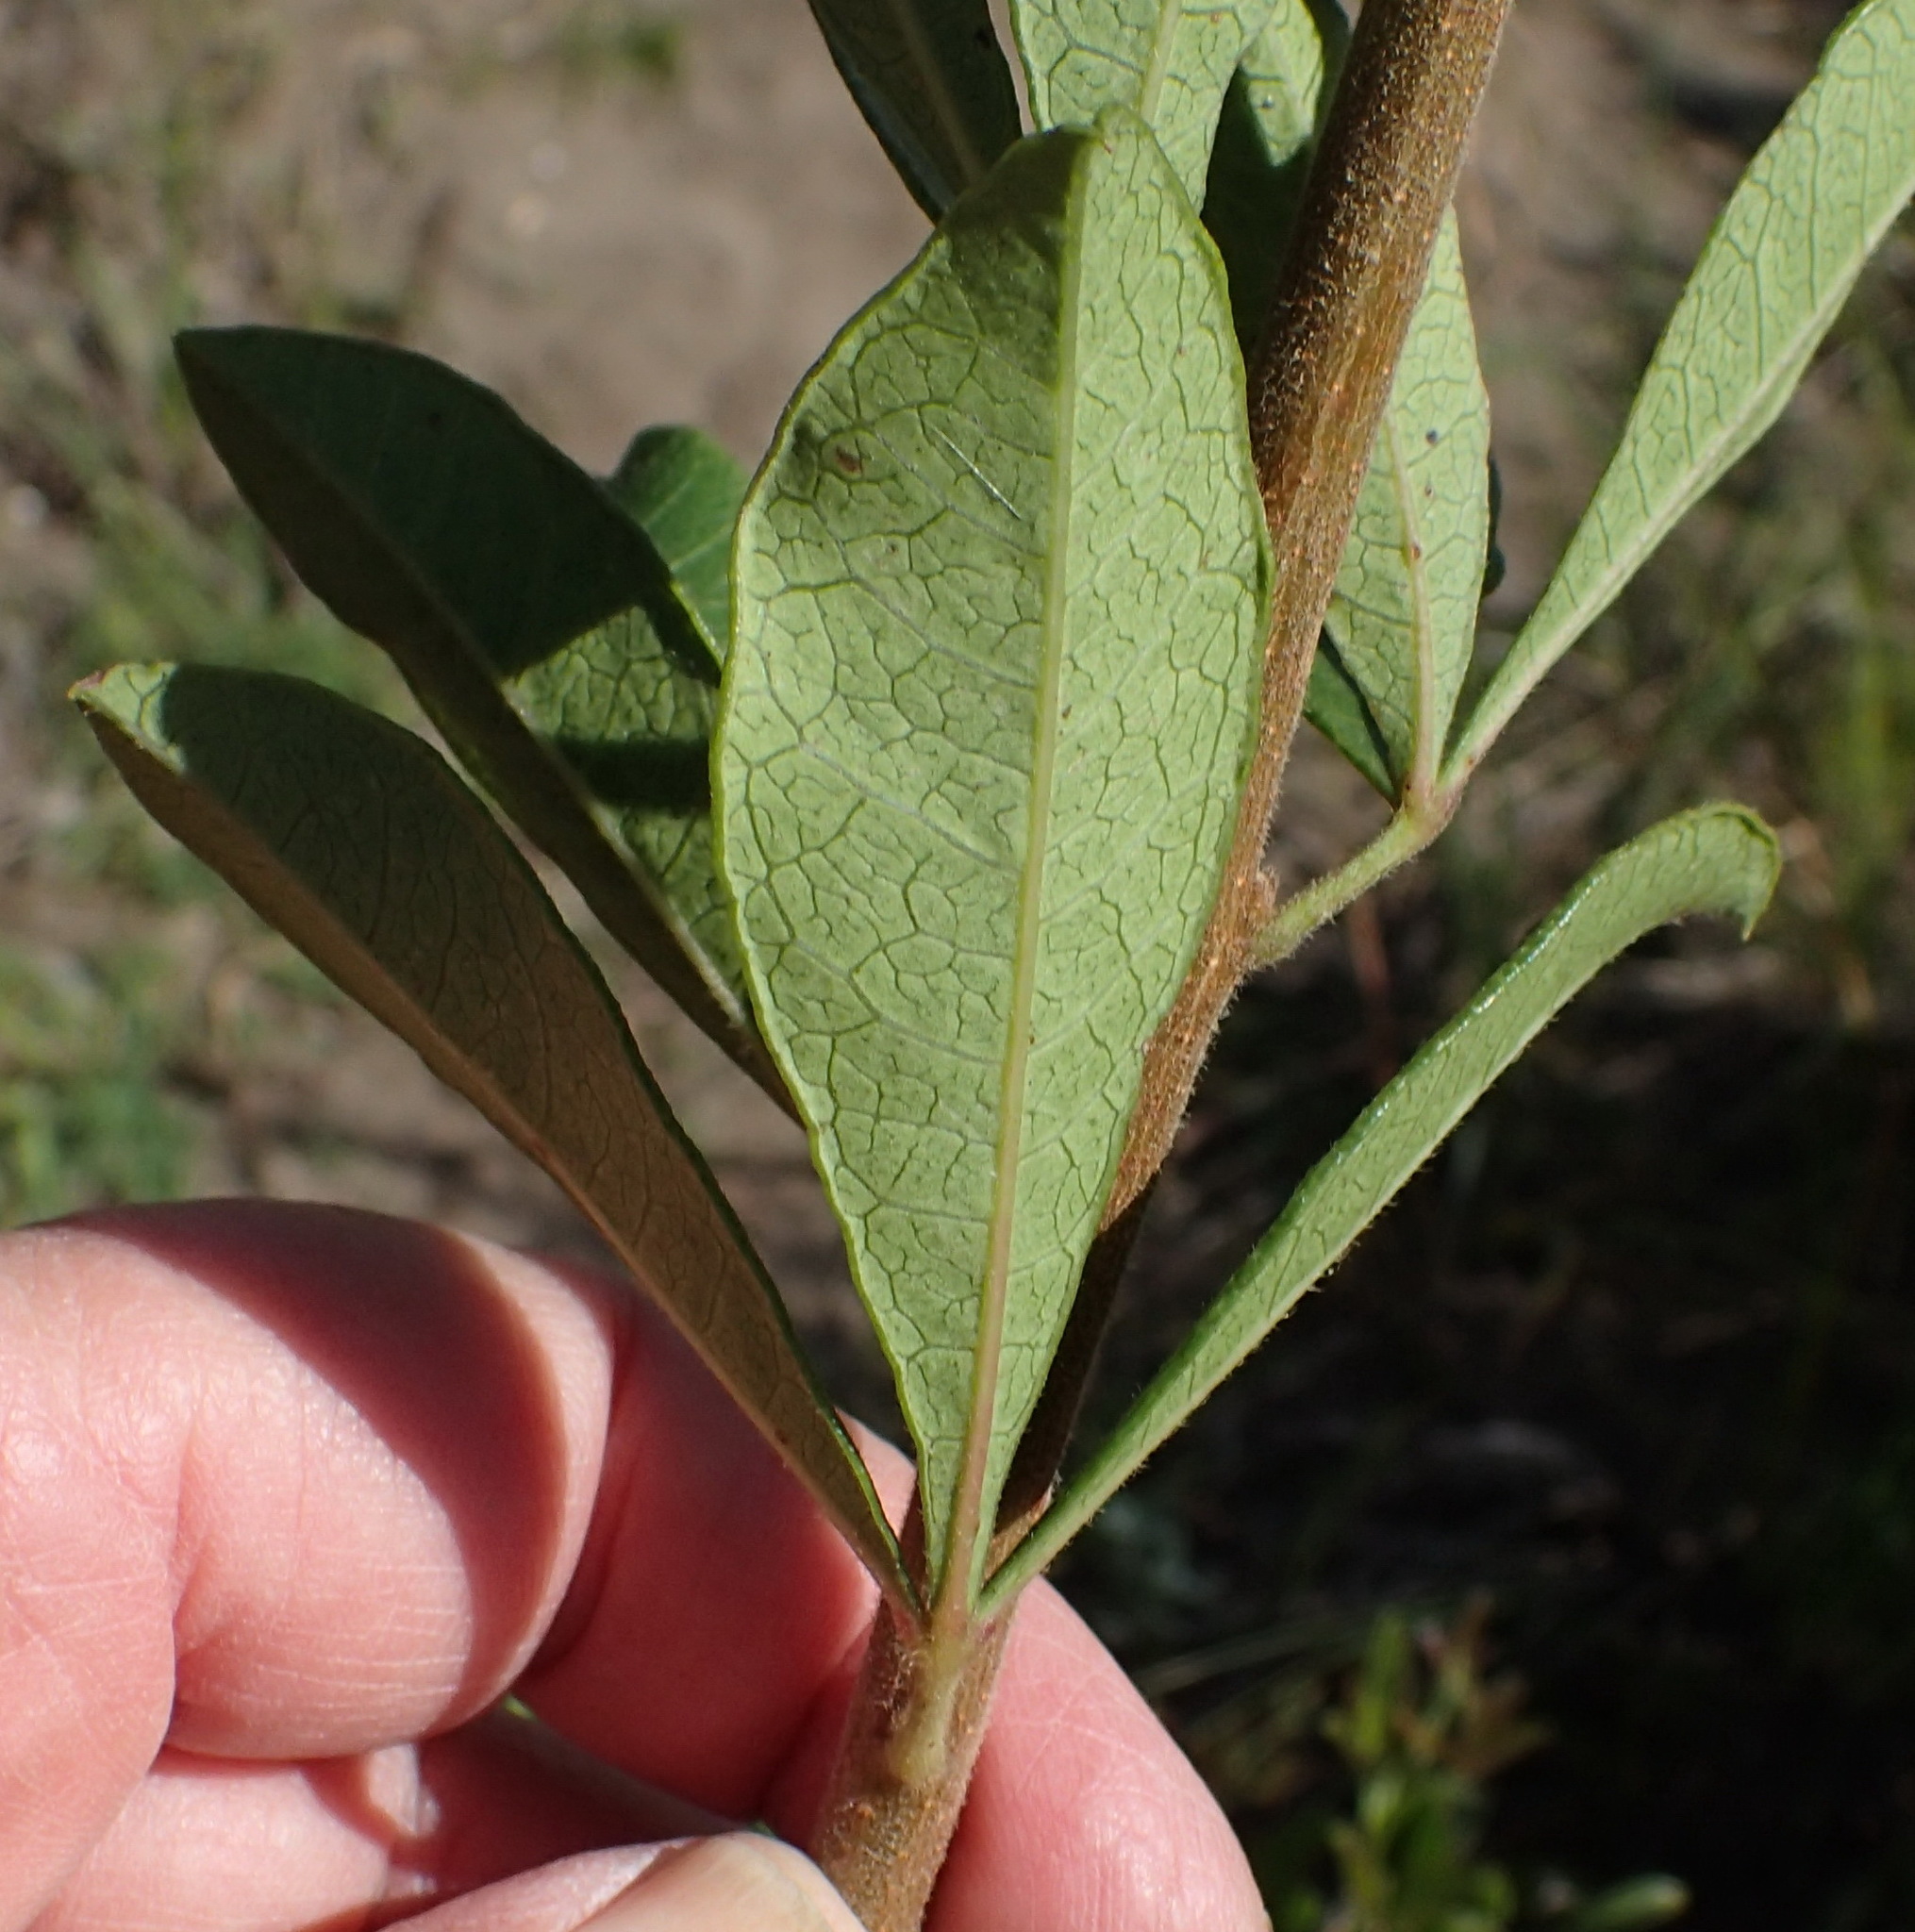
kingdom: Plantae
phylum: Tracheophyta
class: Magnoliopsida
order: Sapindales
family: Anacardiaceae
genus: Searsia
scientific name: Searsia laevigata
